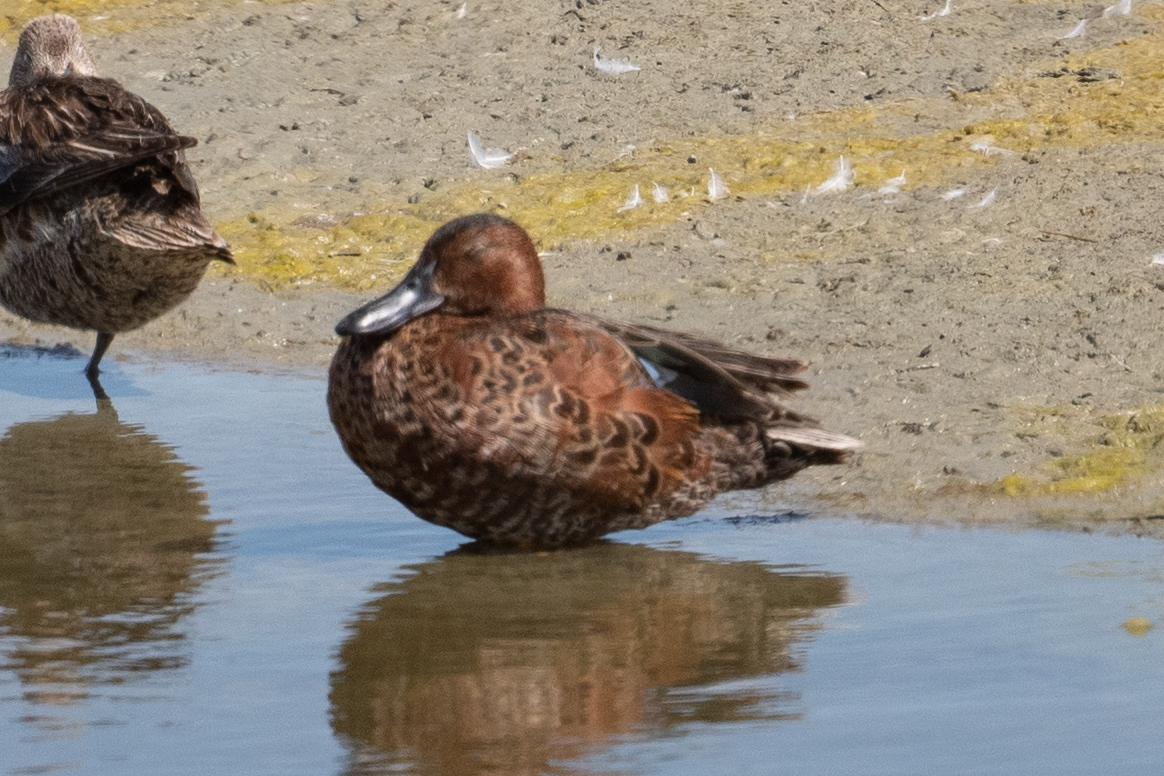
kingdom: Animalia
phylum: Chordata
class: Aves
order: Anseriformes
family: Anatidae
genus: Spatula
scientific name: Spatula cyanoptera
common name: Cinnamon teal
